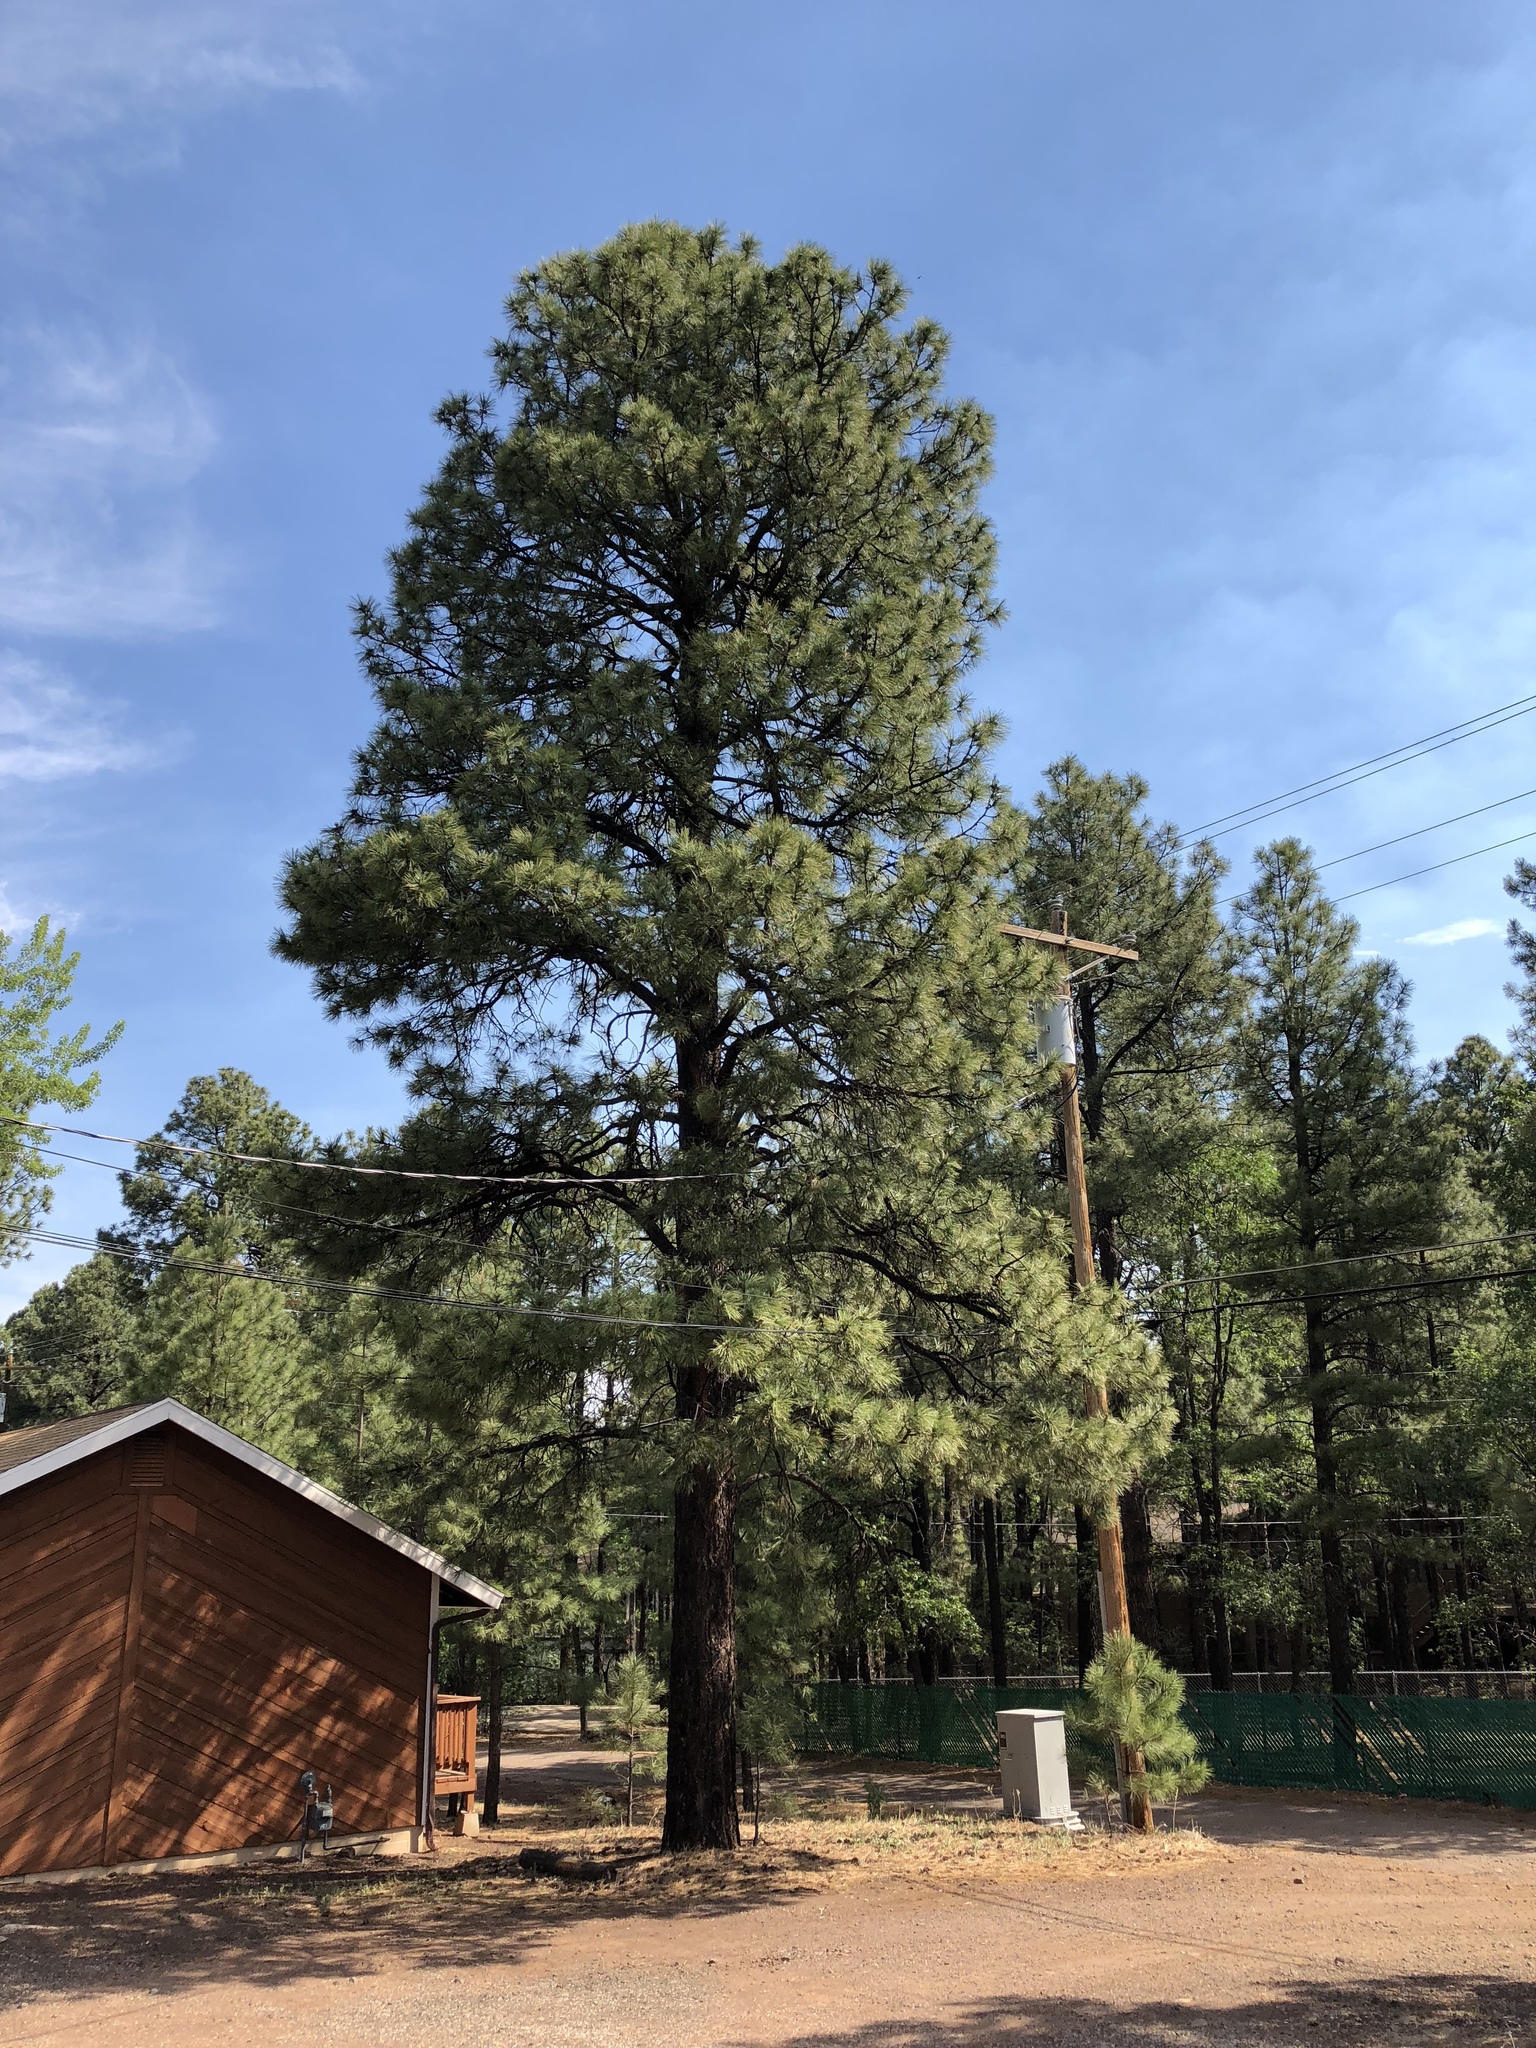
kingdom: Plantae
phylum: Tracheophyta
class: Pinopsida
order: Pinales
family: Pinaceae
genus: Pinus
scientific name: Pinus ponderosa
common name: Western yellow-pine
